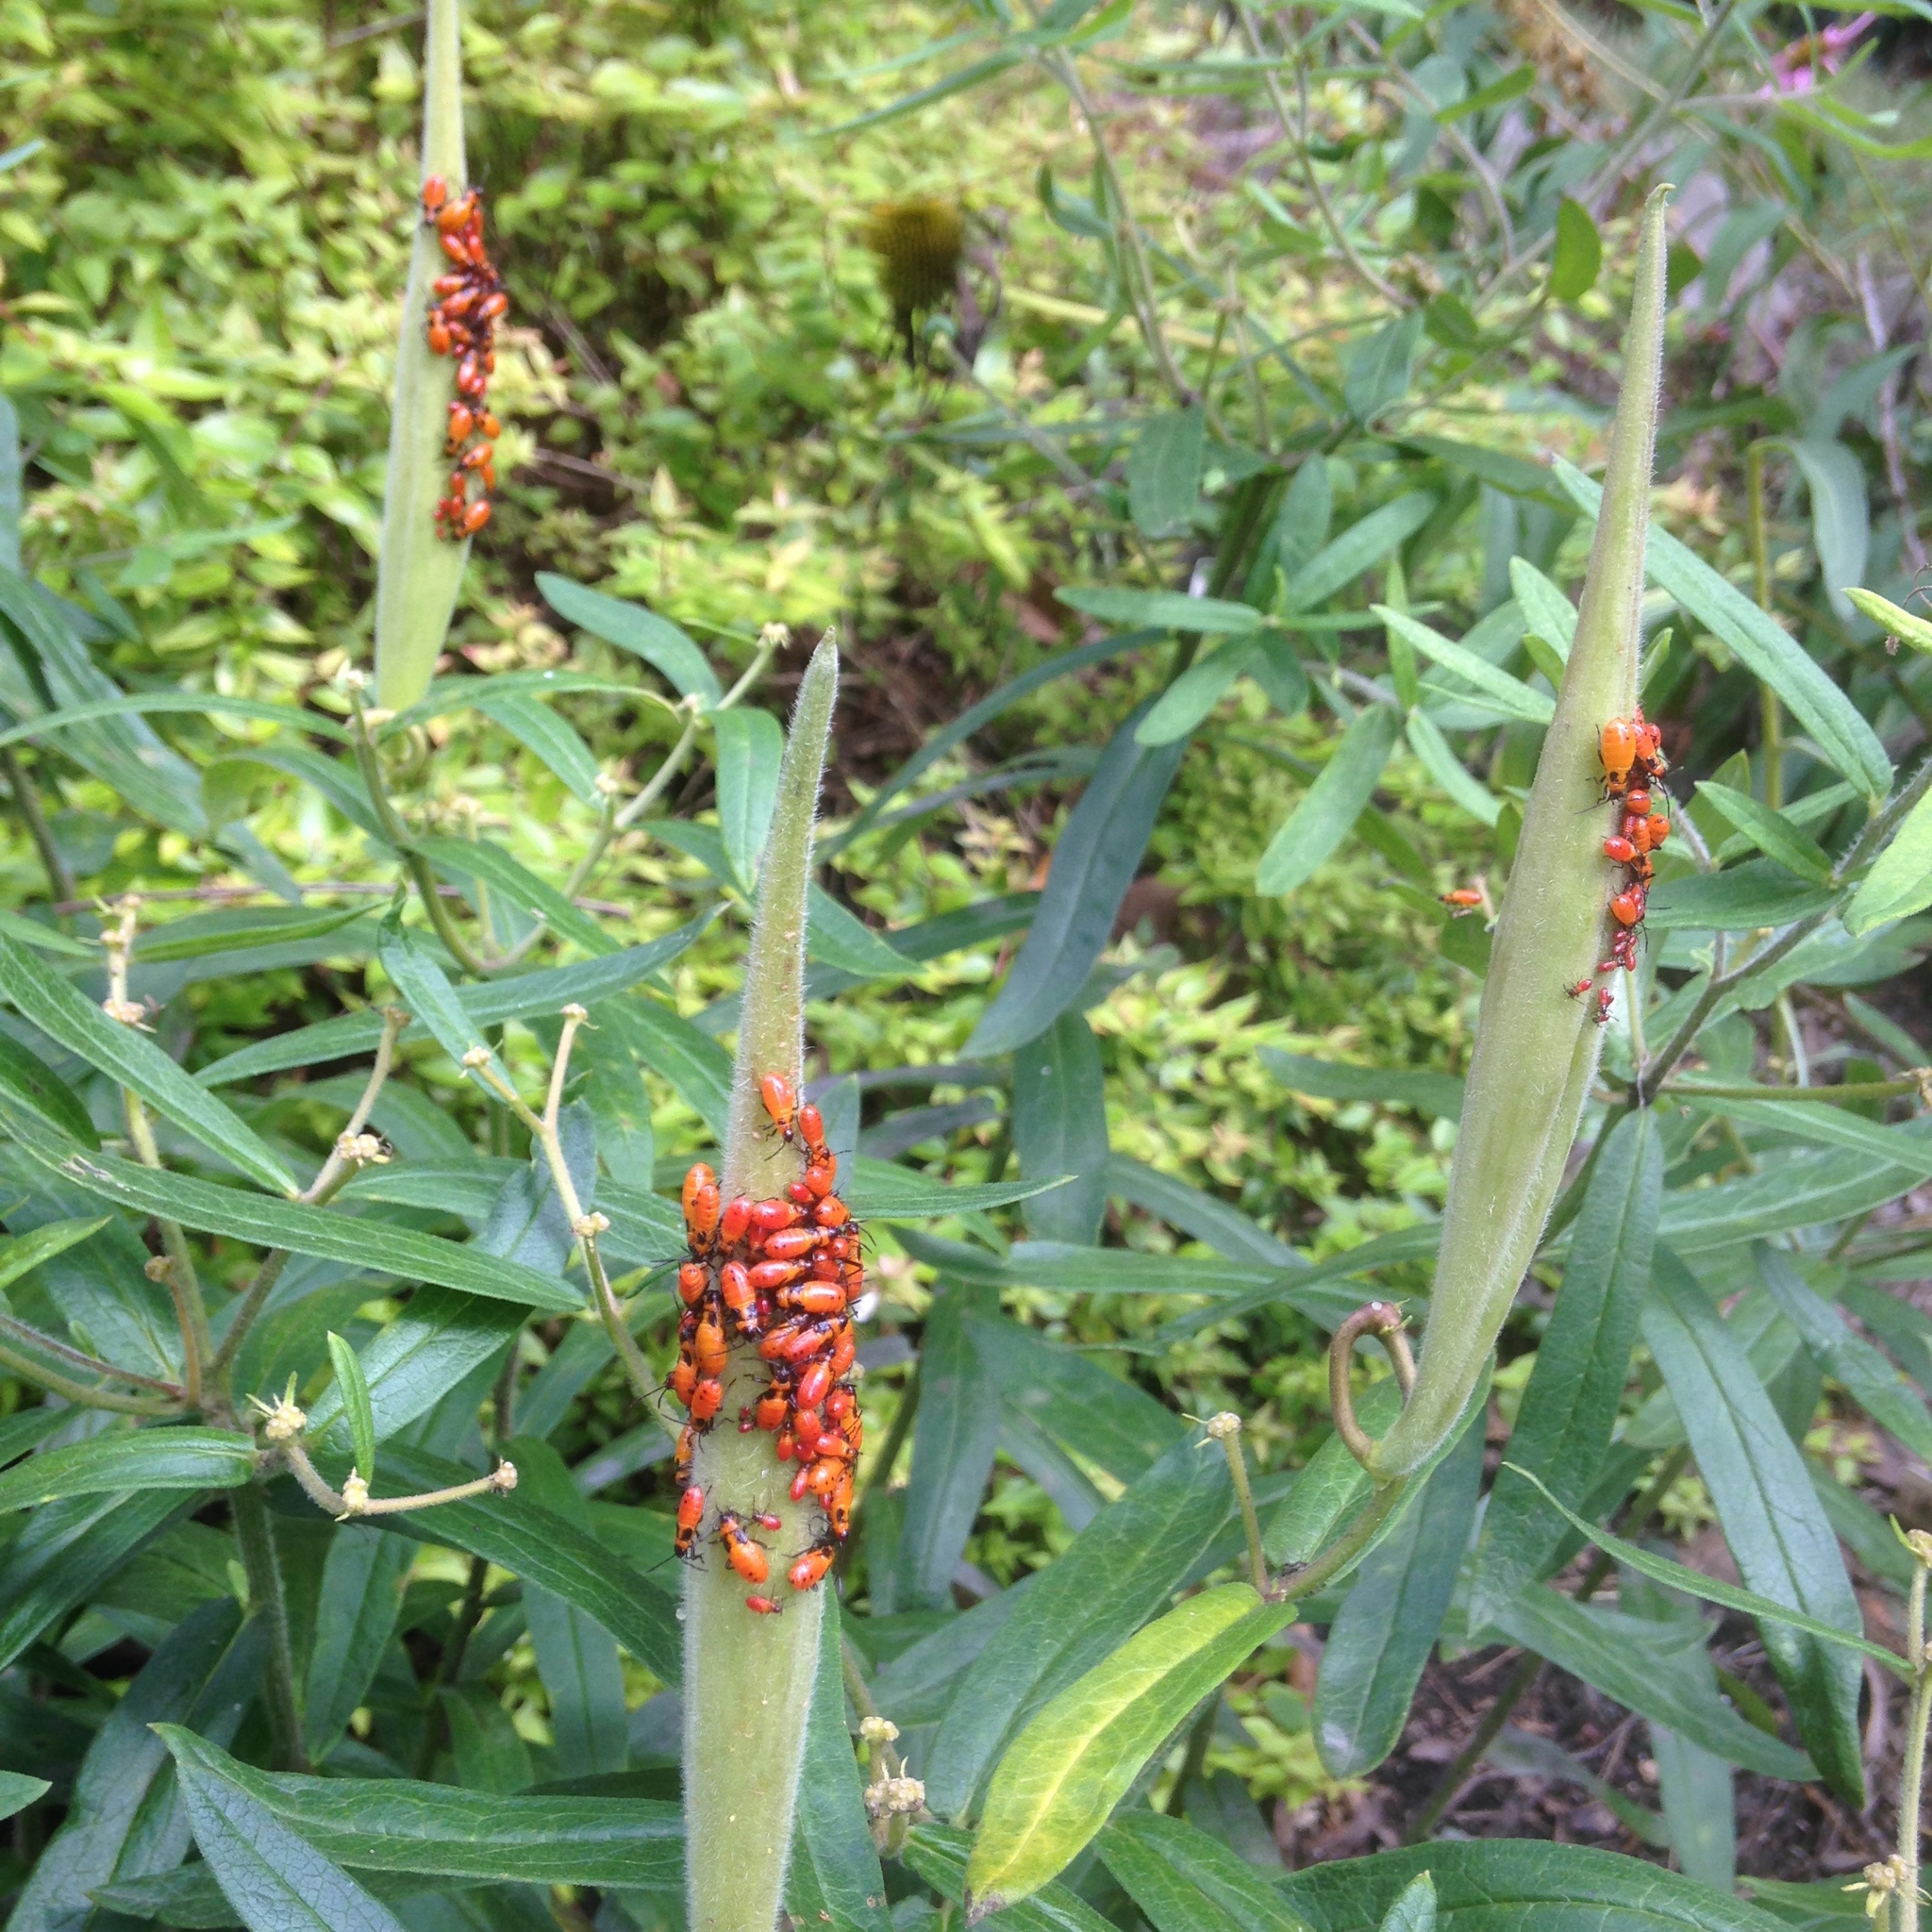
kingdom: Animalia
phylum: Arthropoda
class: Insecta
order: Hemiptera
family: Lygaeidae
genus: Oncopeltus
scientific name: Oncopeltus fasciatus
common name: Large milkweed bug
